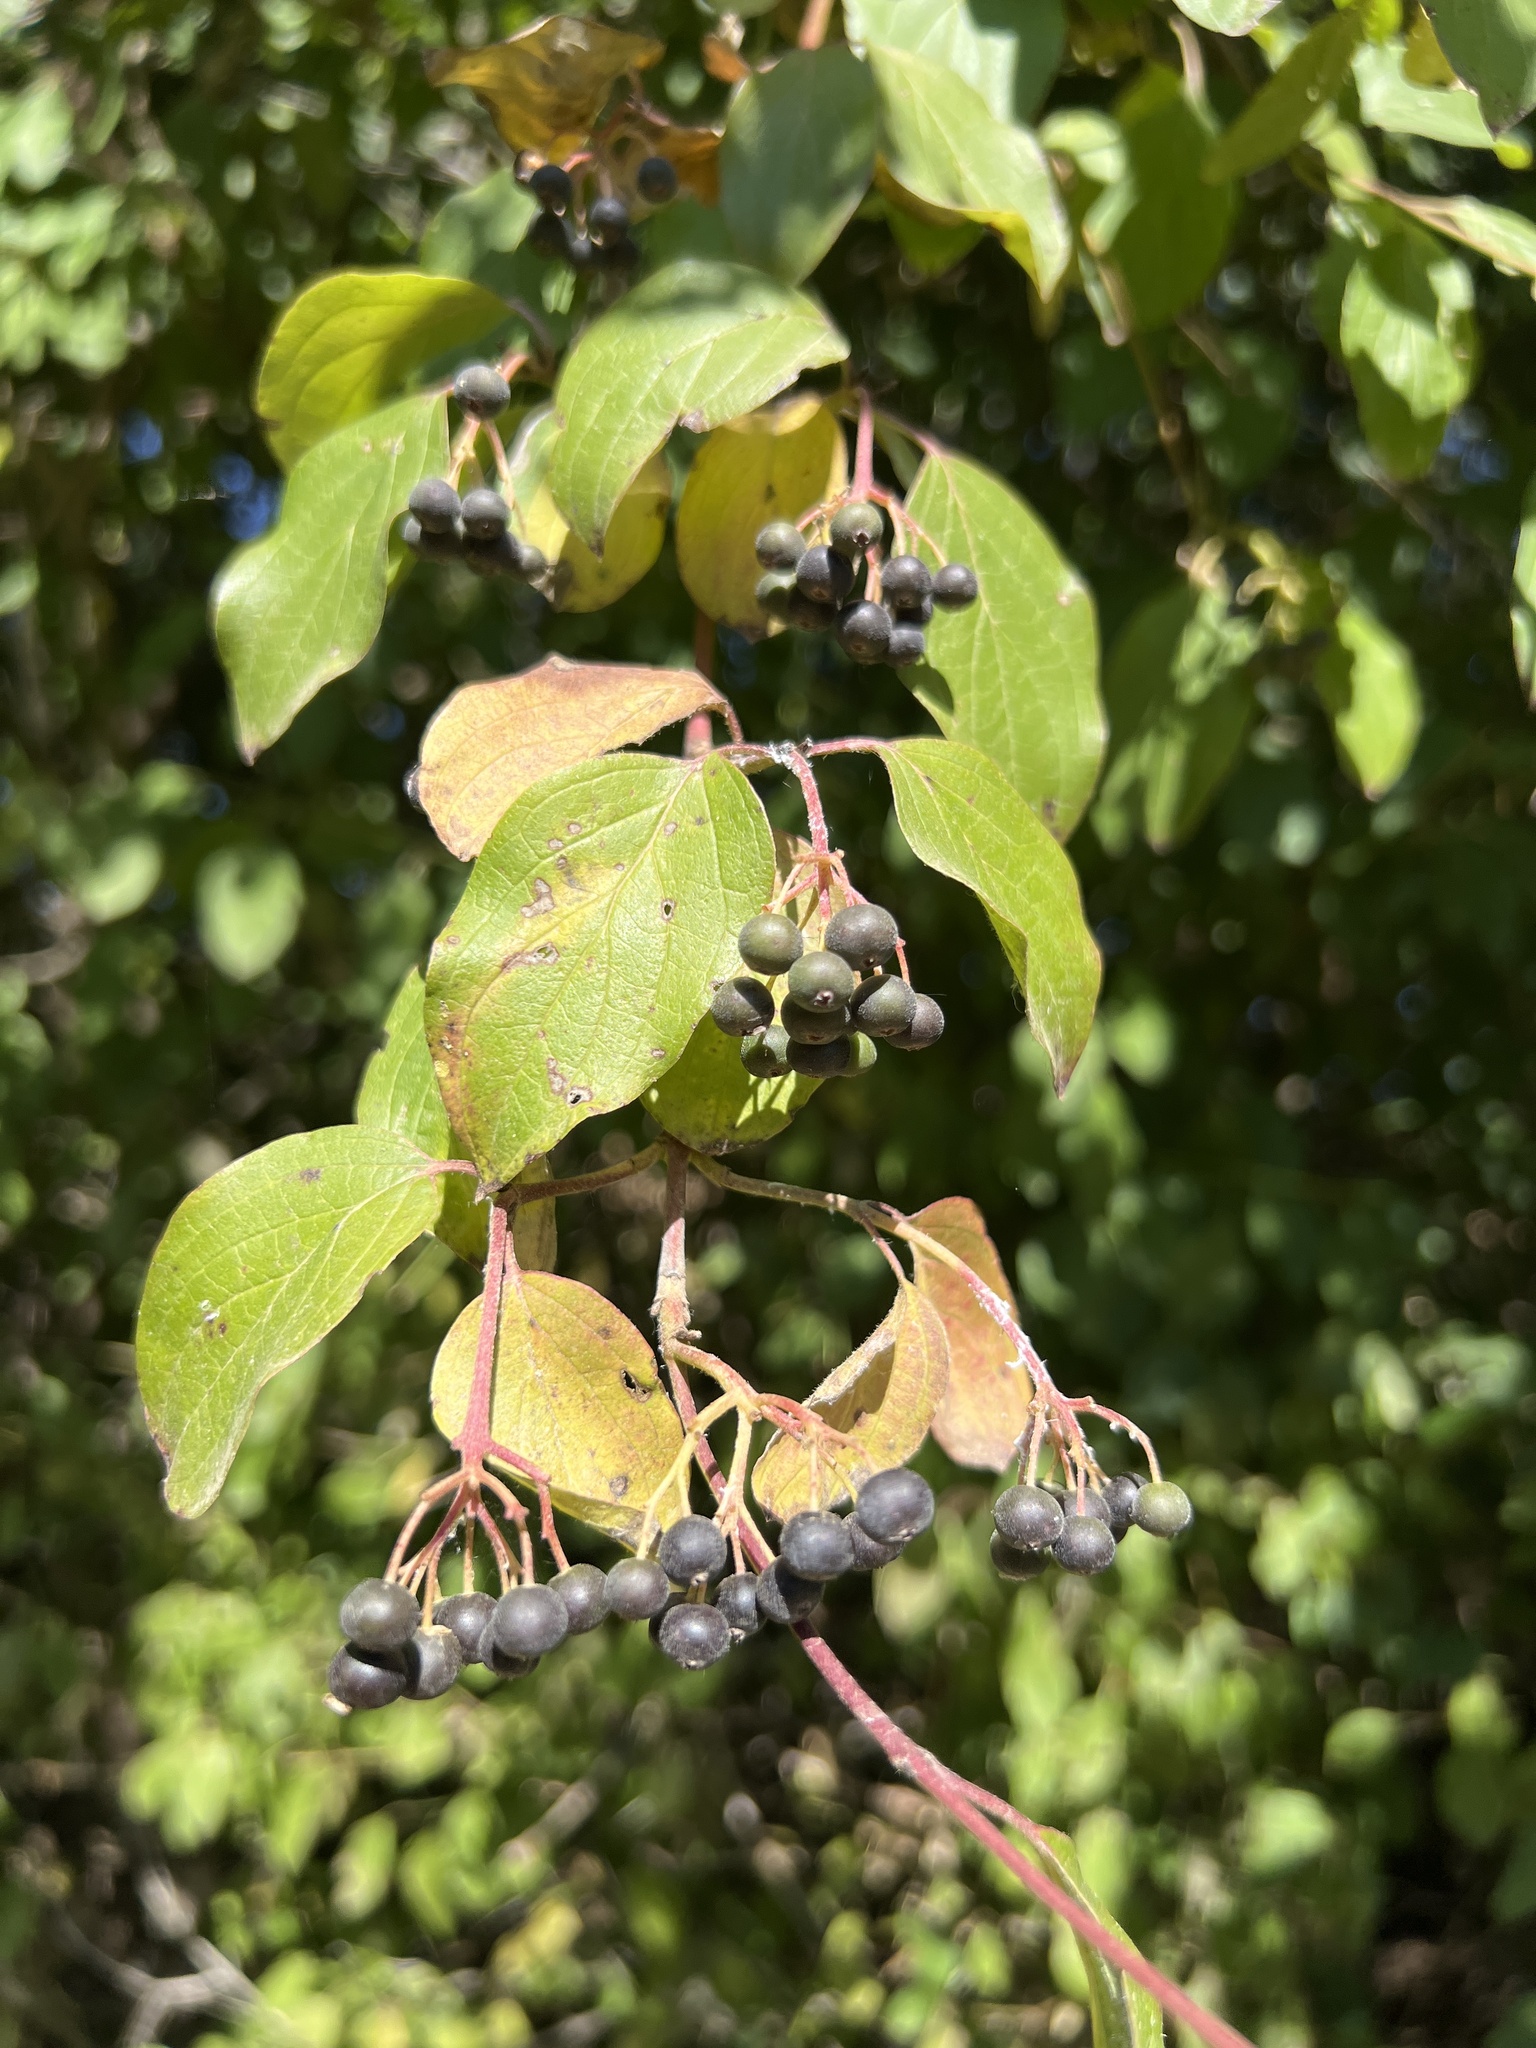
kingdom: Plantae
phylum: Tracheophyta
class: Magnoliopsida
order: Cornales
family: Cornaceae
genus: Cornus
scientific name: Cornus sanguinea
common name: Dogwood
